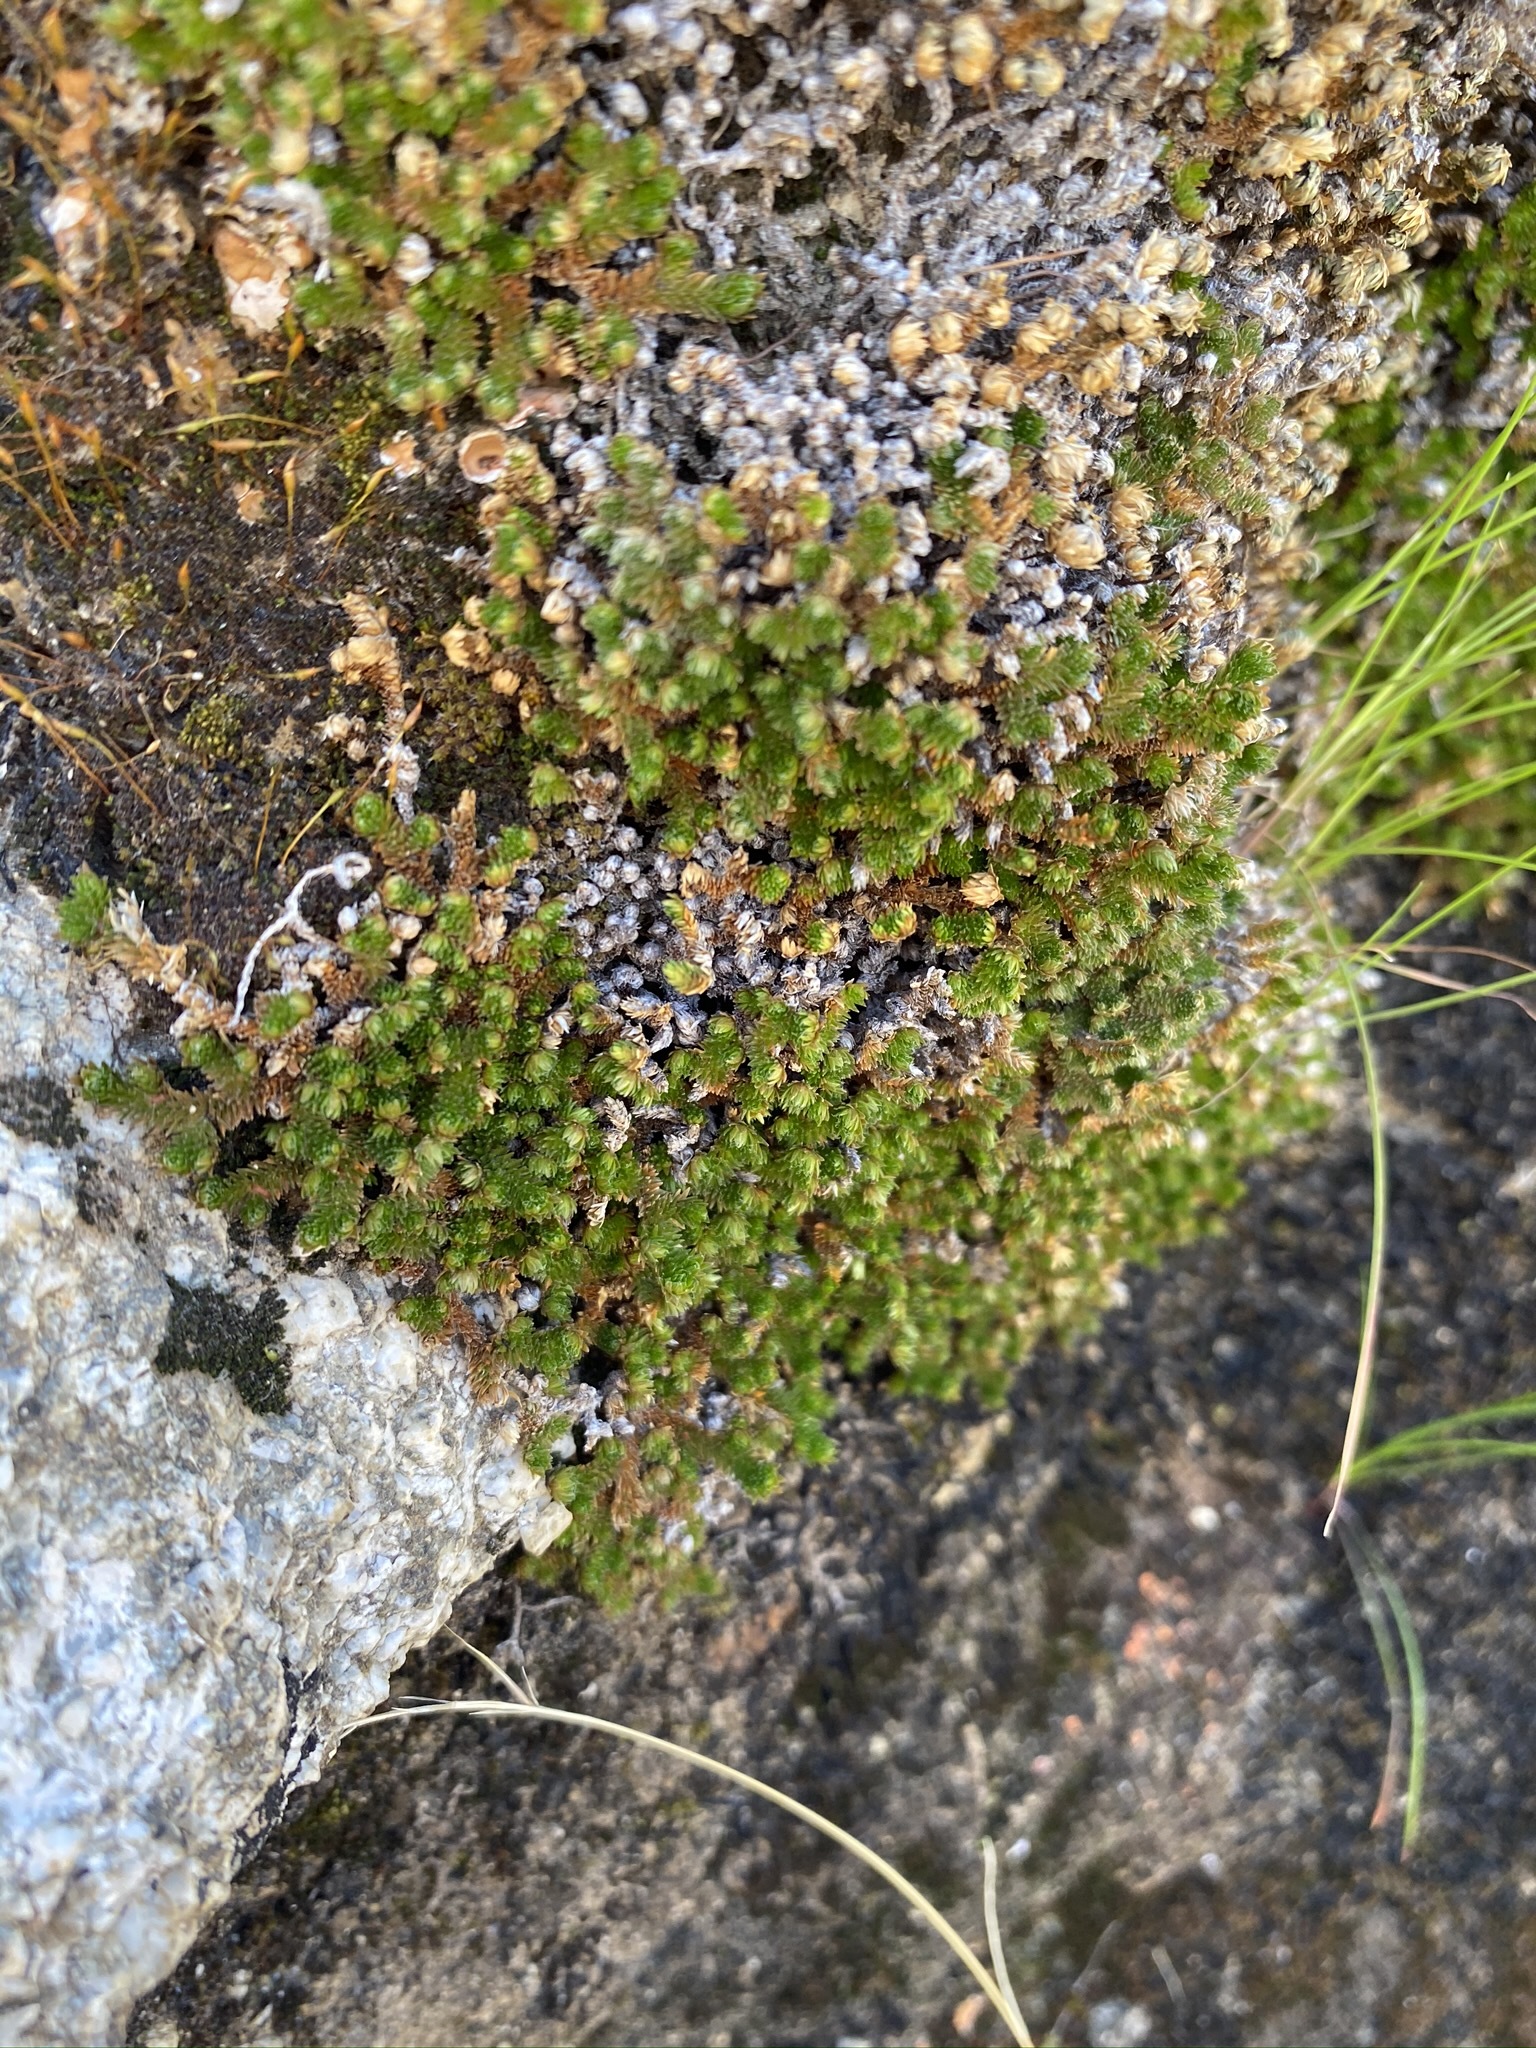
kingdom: Plantae
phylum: Tracheophyta
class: Lycopodiopsida
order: Selaginellales
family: Selaginellaceae
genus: Selaginella
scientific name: Selaginella eremophila
